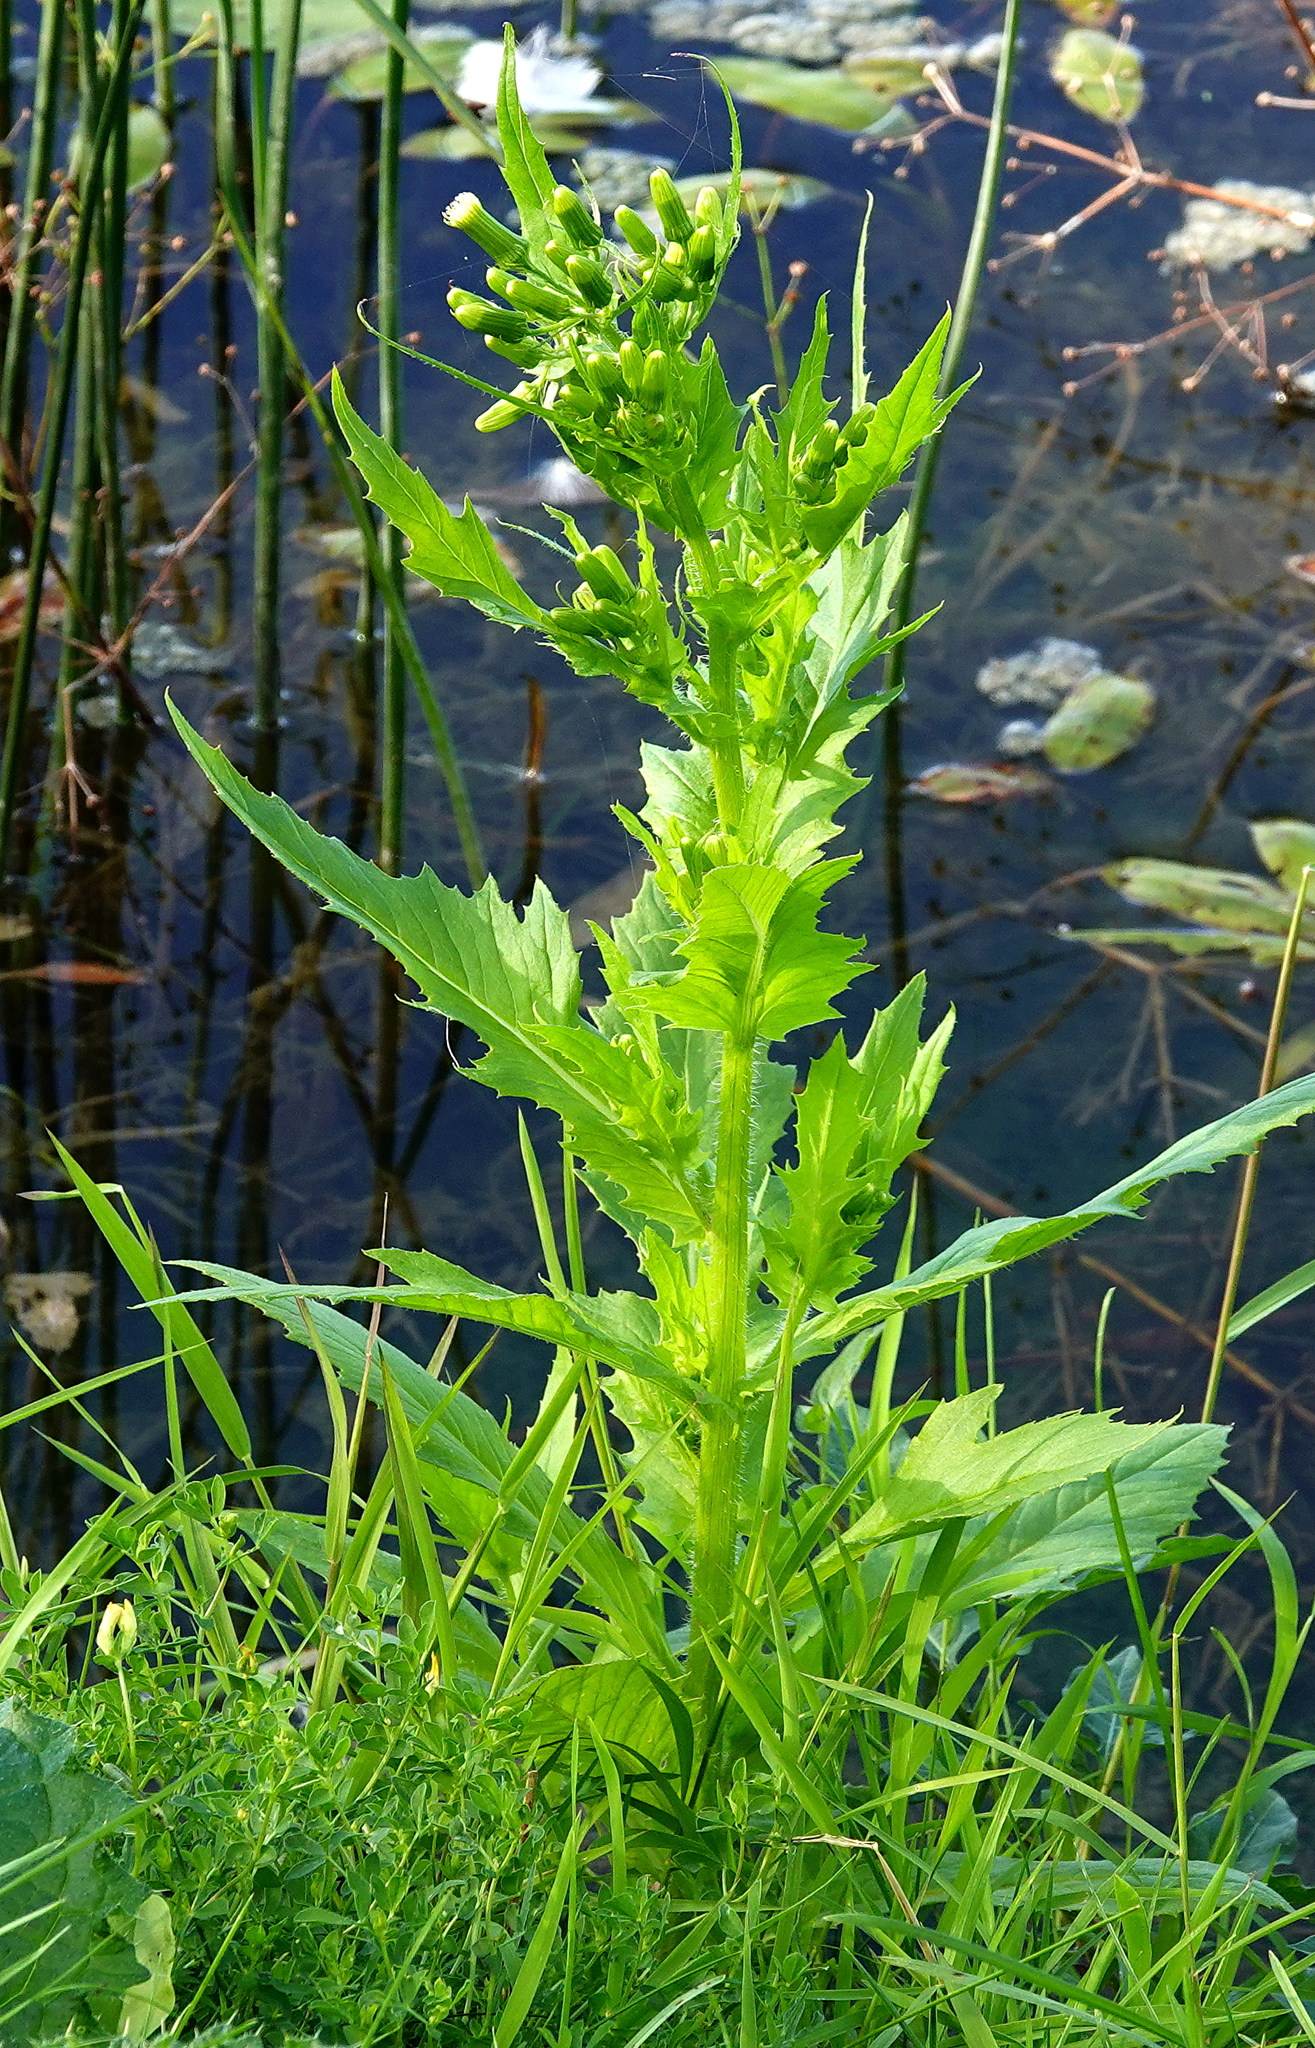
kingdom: Plantae
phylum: Tracheophyta
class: Magnoliopsida
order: Asterales
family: Asteraceae
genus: Erechtites
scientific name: Erechtites hieraciifolius
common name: American burnweed
